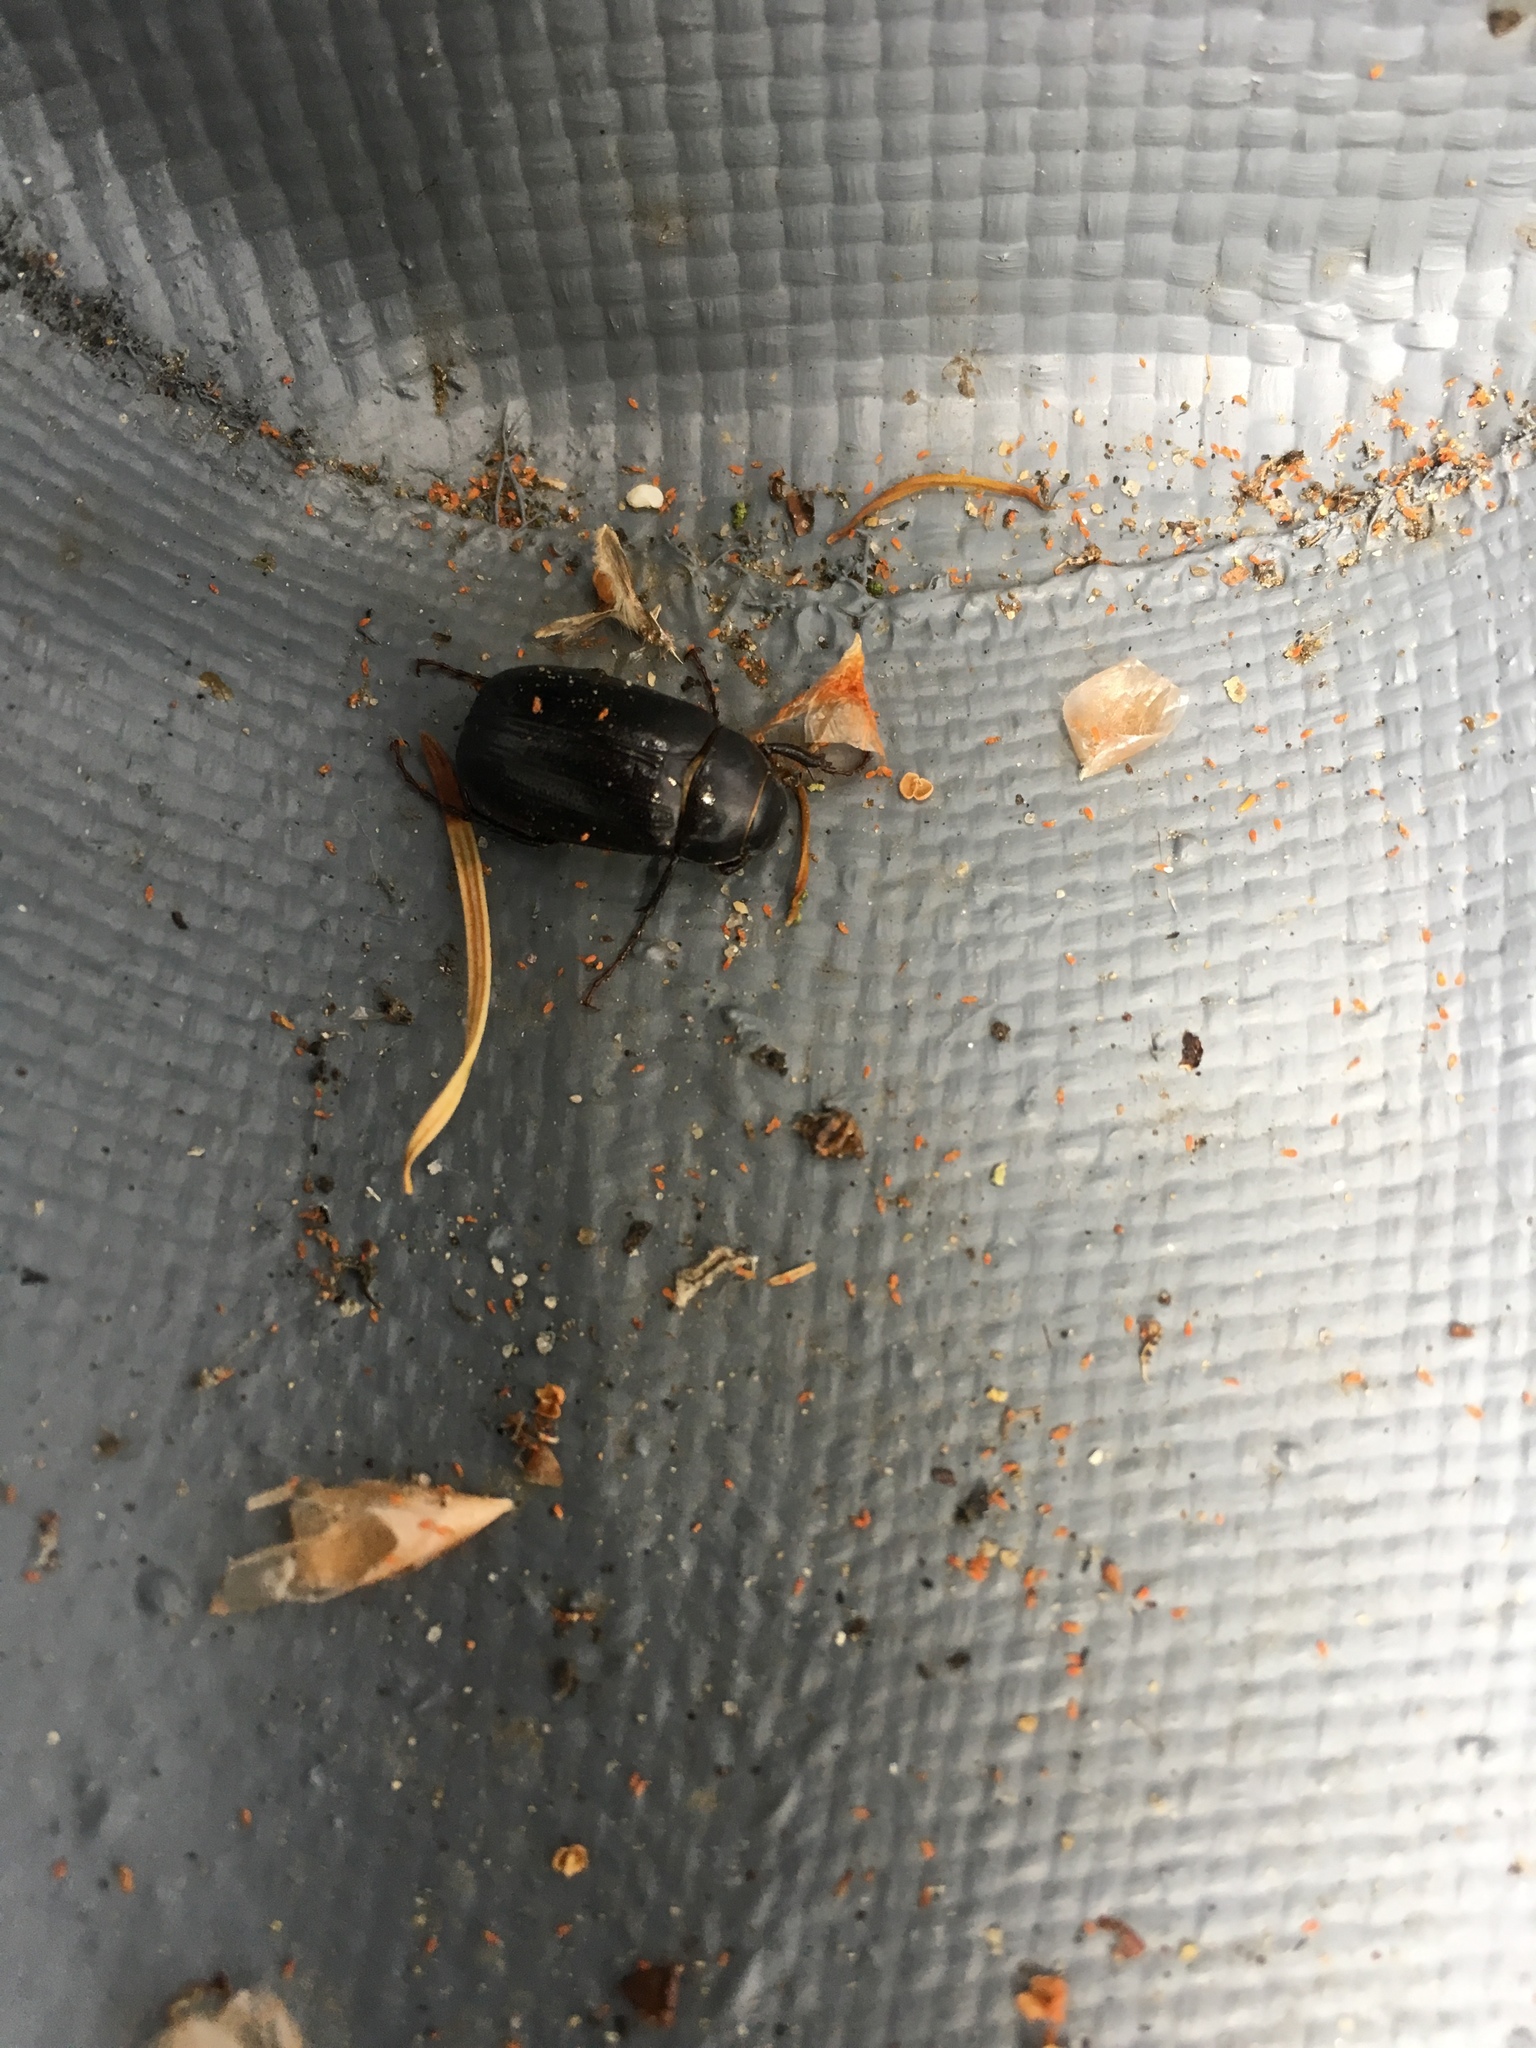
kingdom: Animalia
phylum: Arthropoda
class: Insecta
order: Coleoptera
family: Scarabaeidae
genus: Diplotaxis
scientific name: Diplotaxis brevicollis
